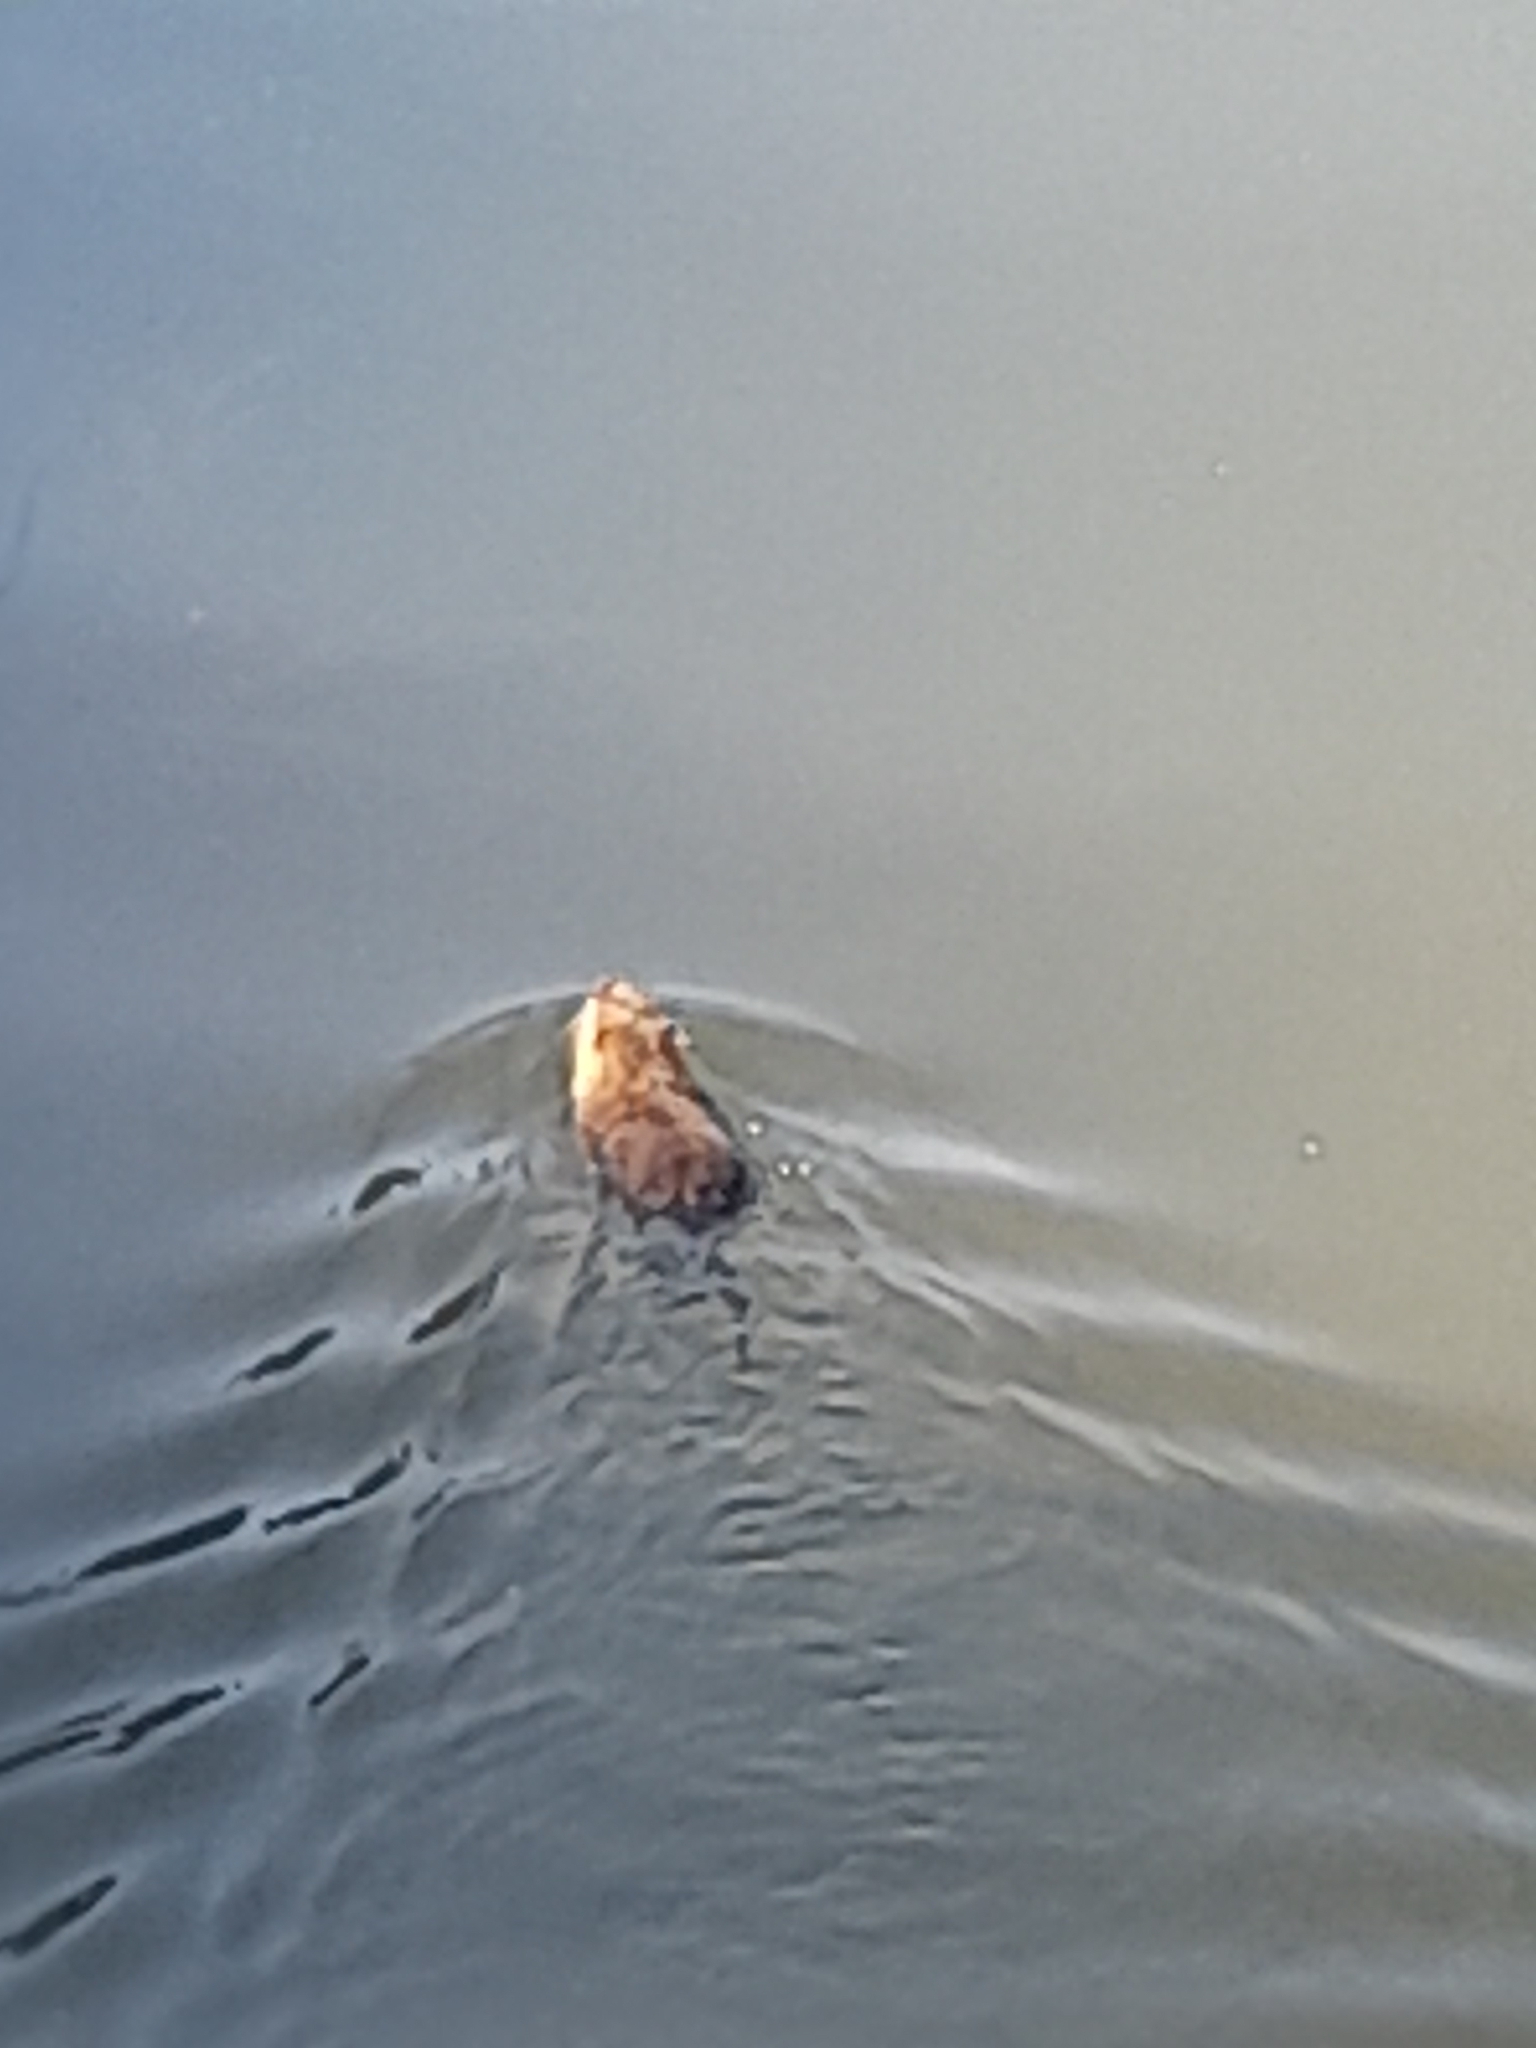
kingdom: Animalia
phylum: Chordata
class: Mammalia
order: Rodentia
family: Myocastoridae
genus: Myocastor
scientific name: Myocastor coypus
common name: Coypu
